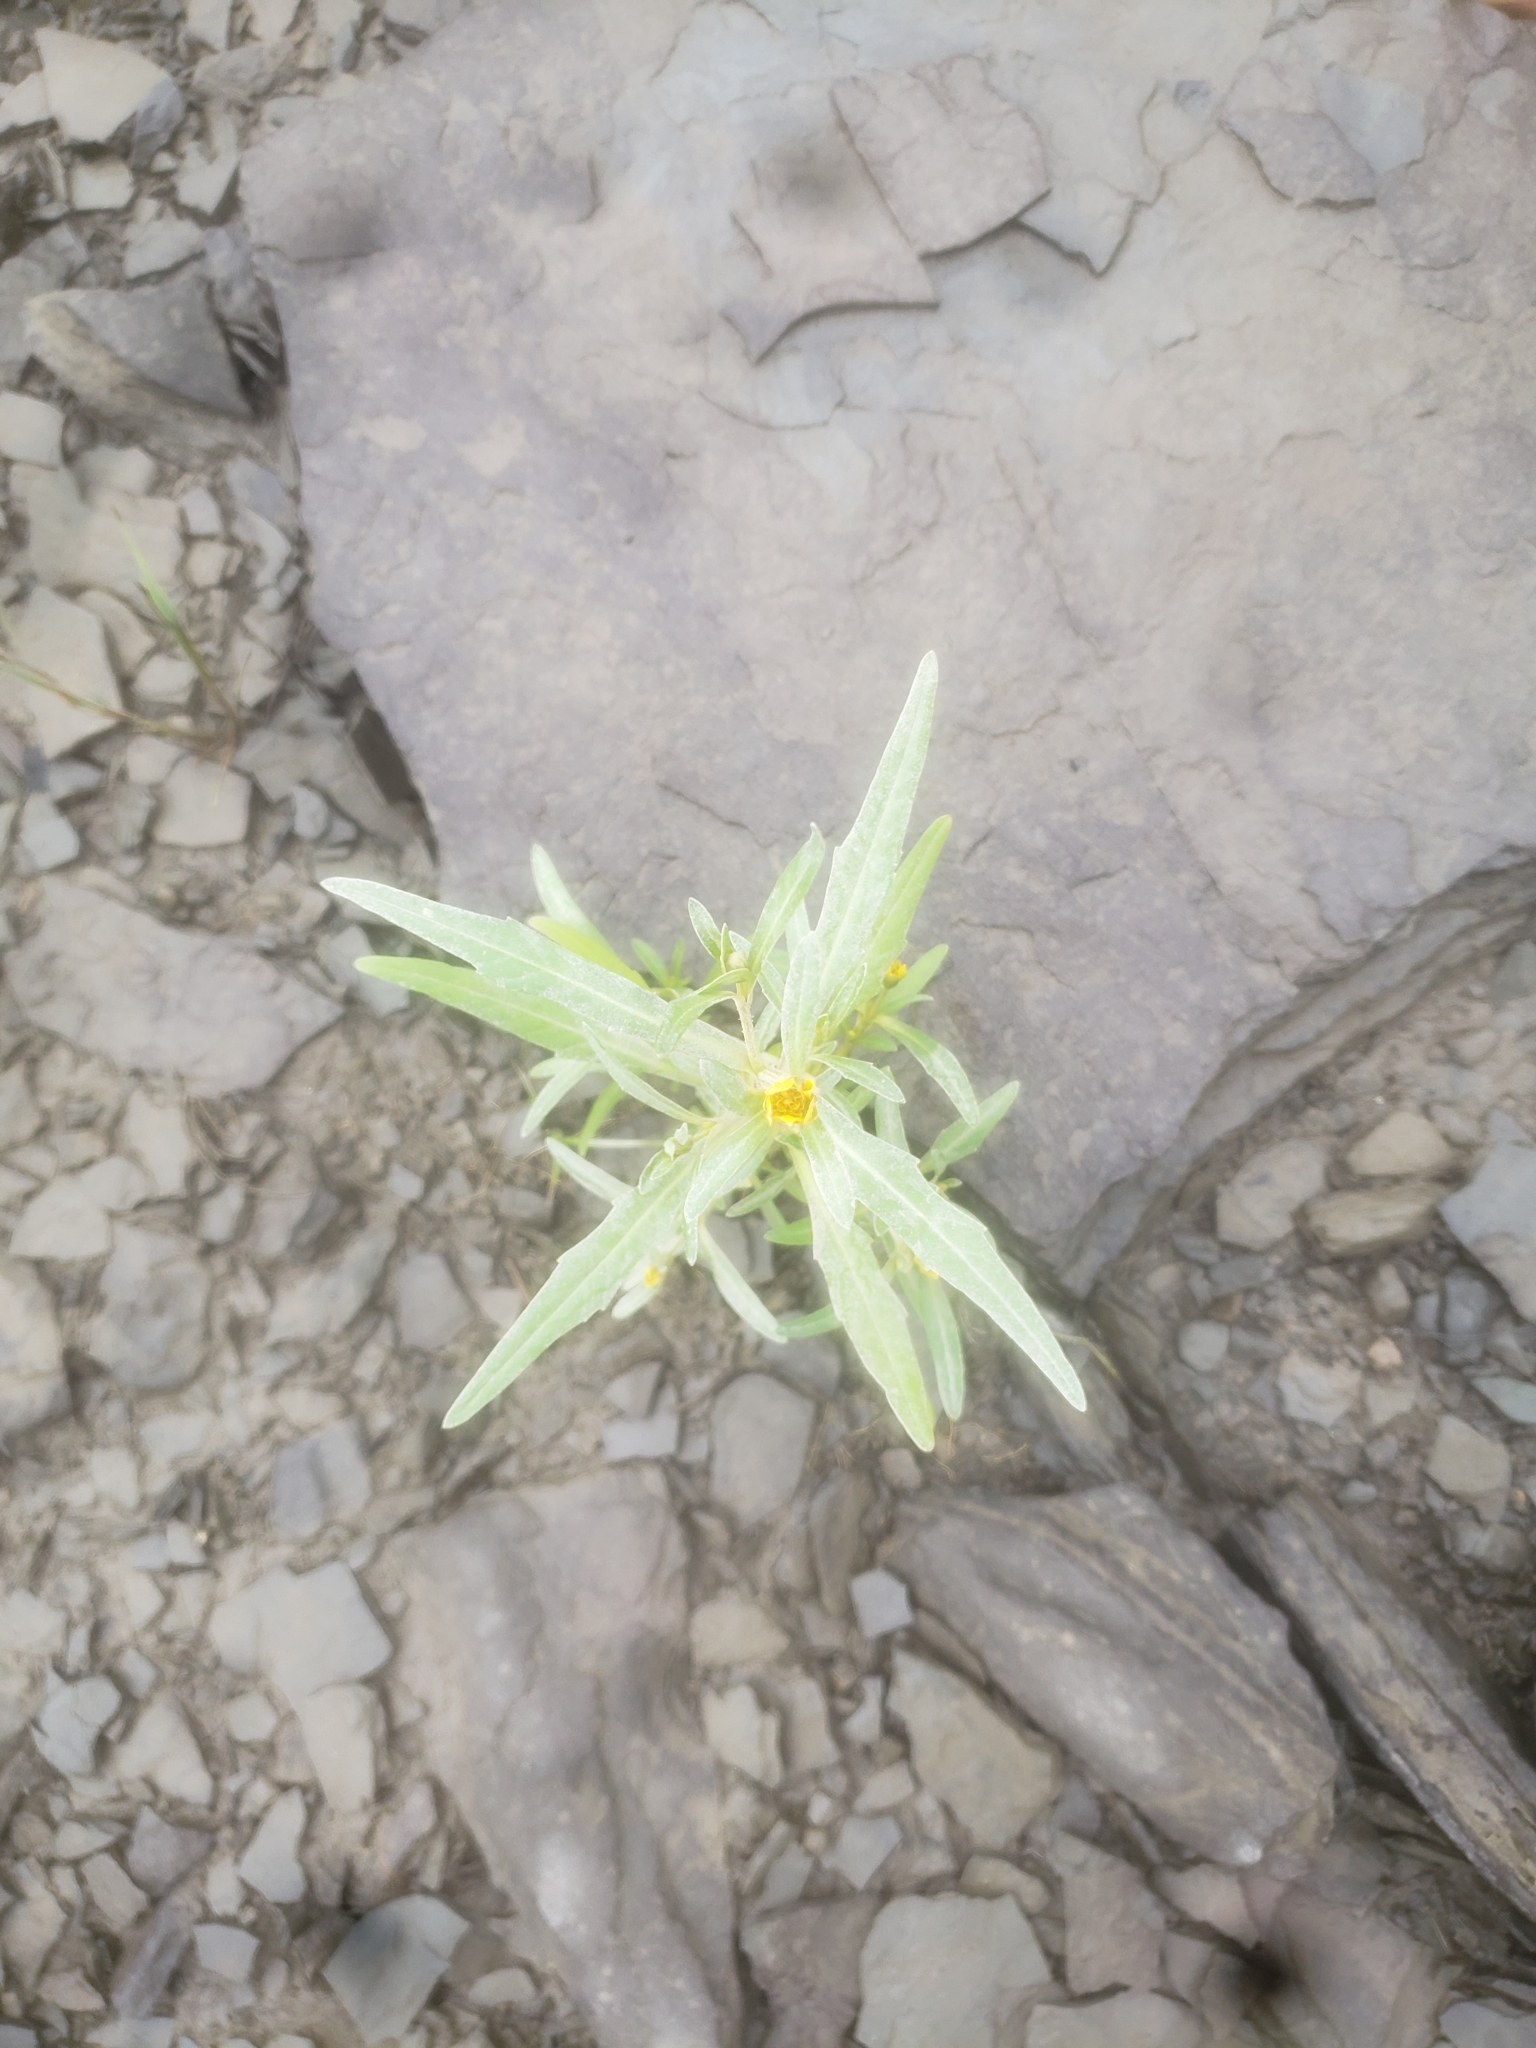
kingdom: Plantae
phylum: Tracheophyta
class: Magnoliopsida
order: Asterales
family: Asteraceae
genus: Bidens
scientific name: Bidens hyperborea
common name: Coastal beggarticks
